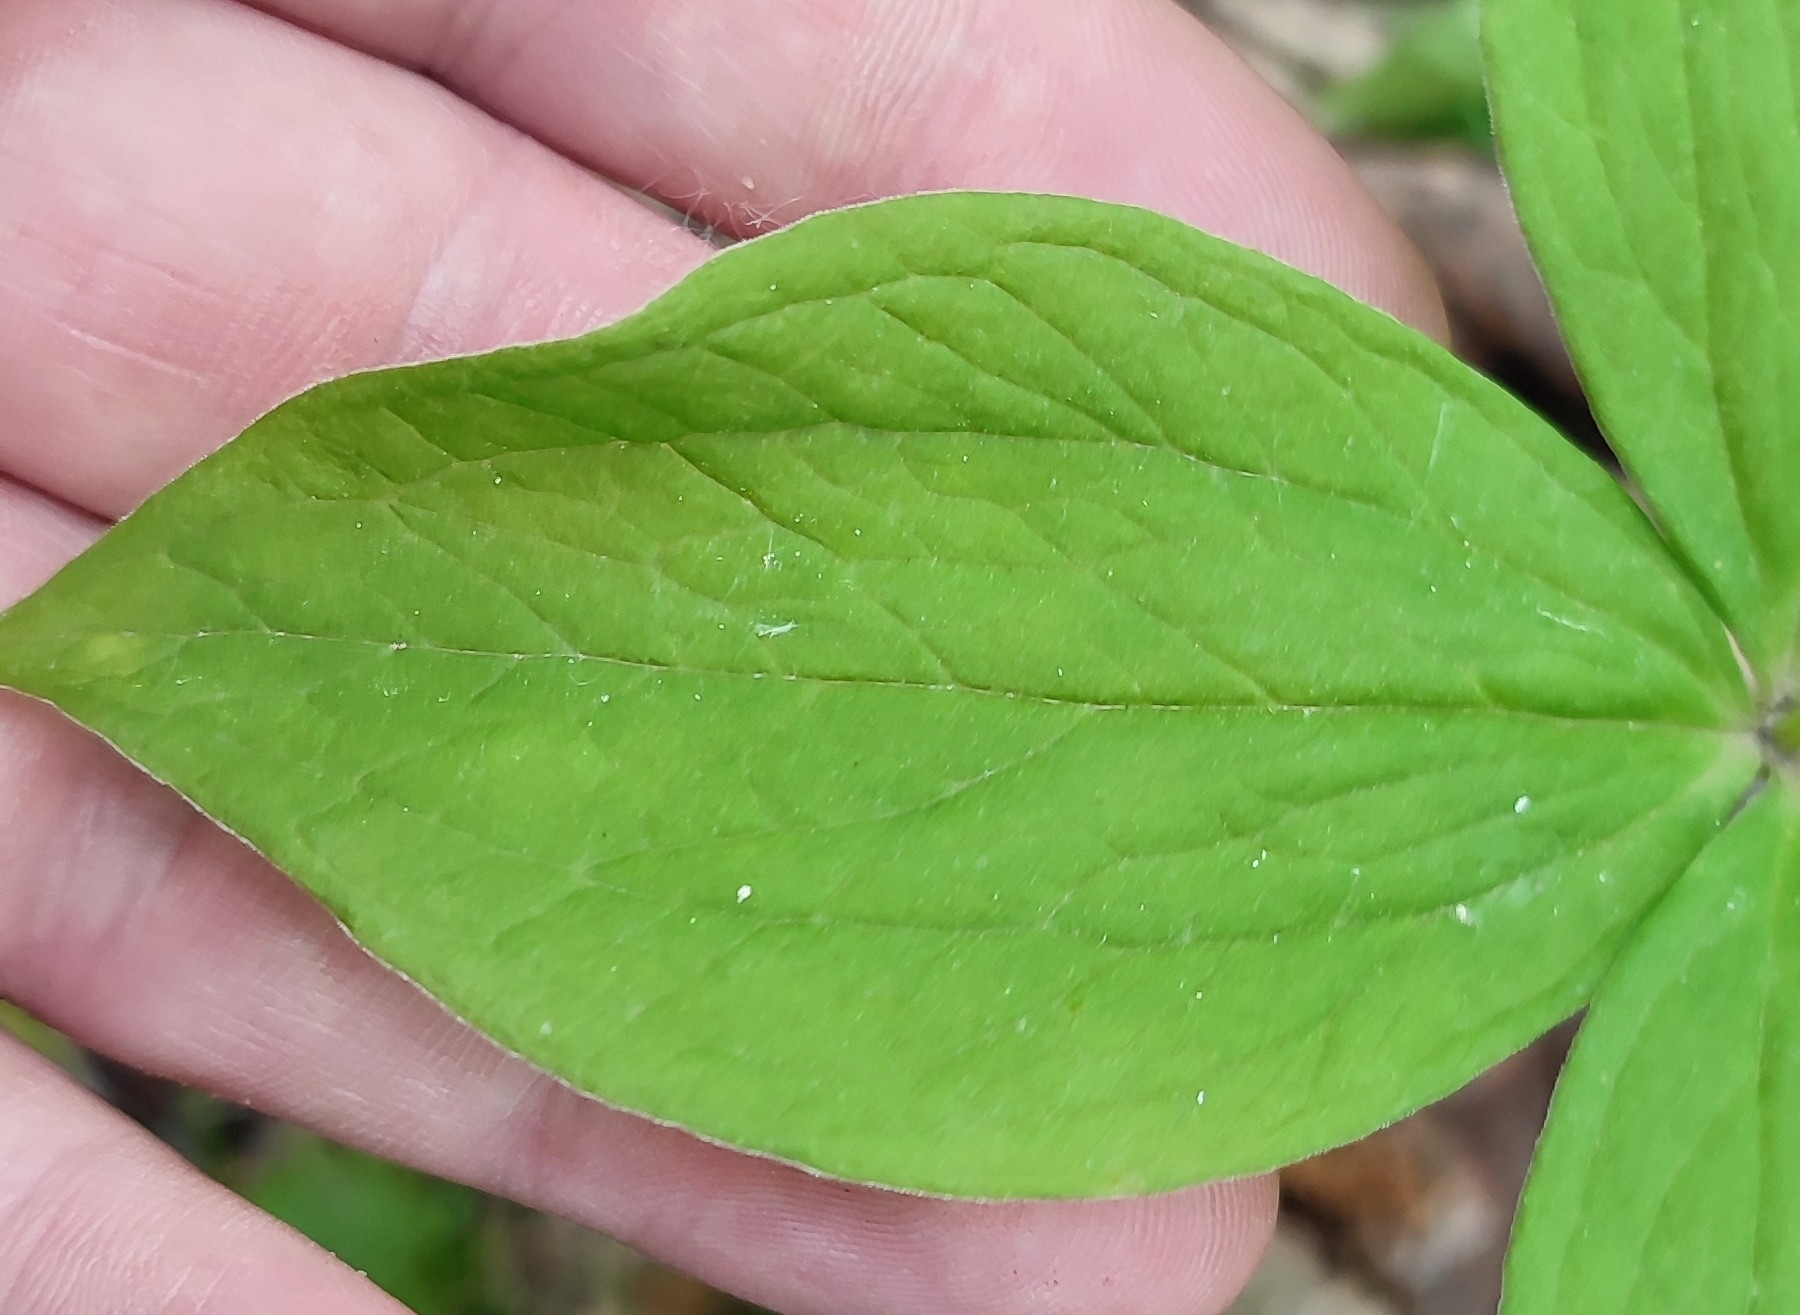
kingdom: Plantae
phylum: Tracheophyta
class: Liliopsida
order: Liliales
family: Melanthiaceae
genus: Paris
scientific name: Paris quadrifolia
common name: Herb-paris
